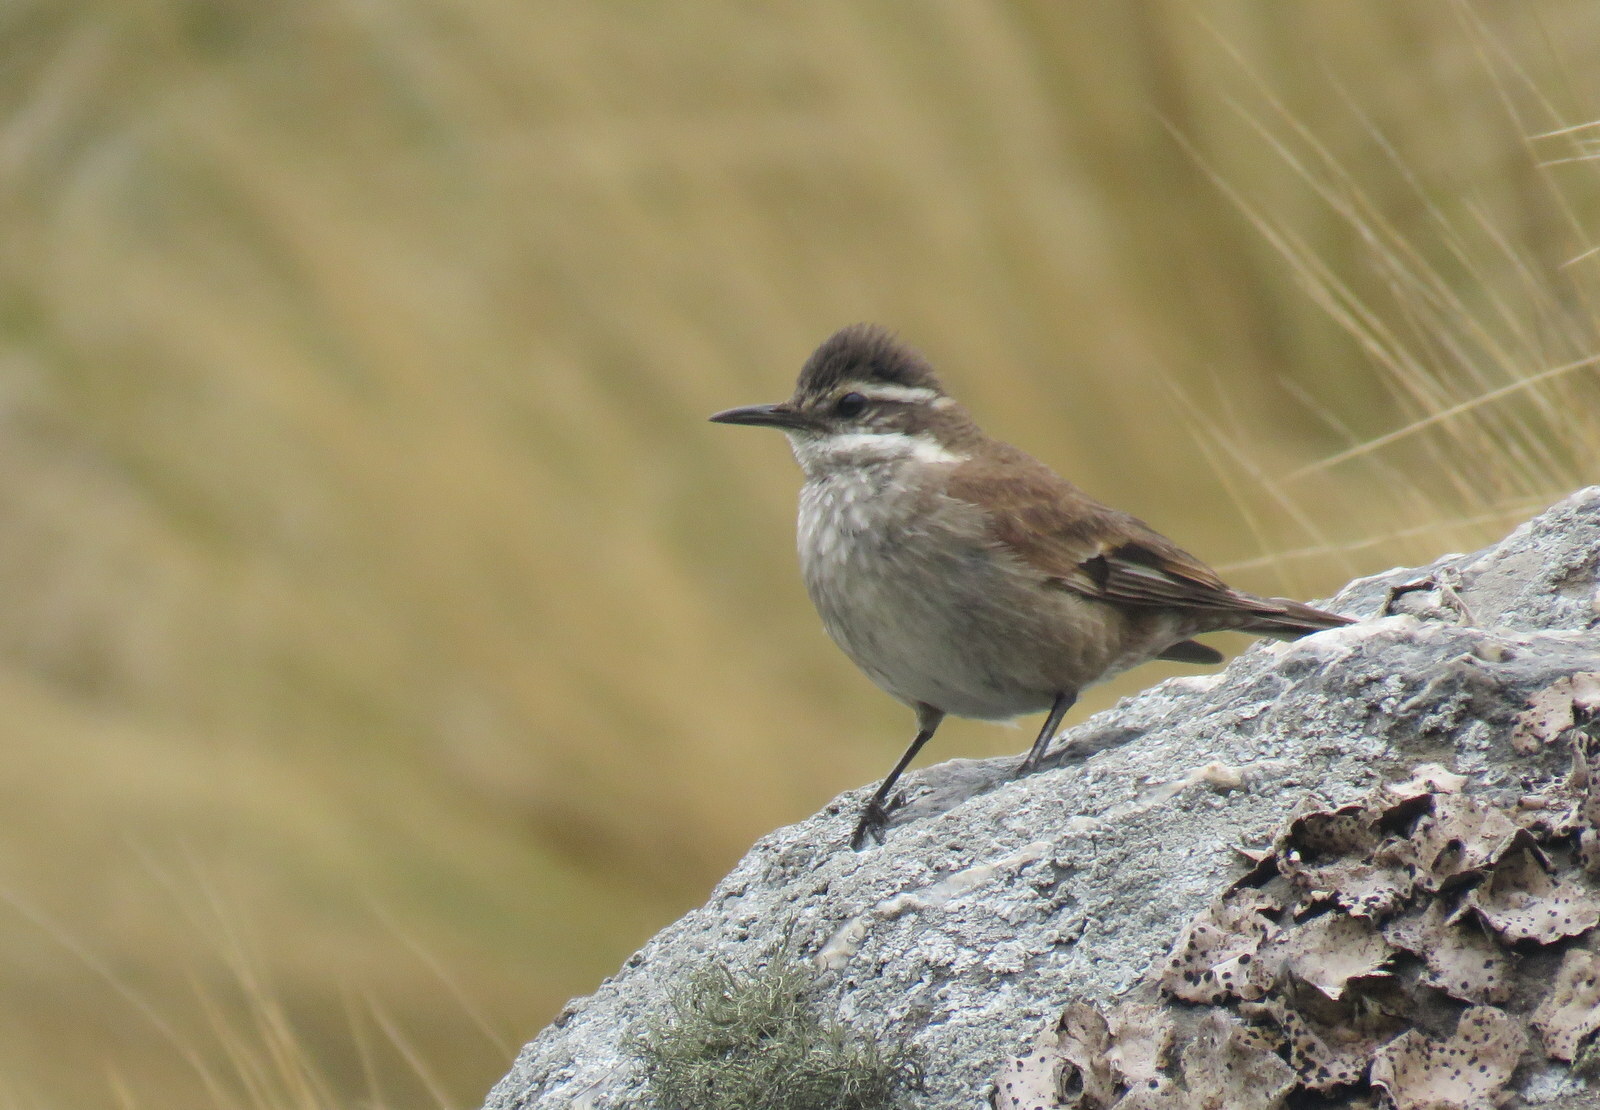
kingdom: Animalia
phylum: Chordata
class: Aves
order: Passeriformes
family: Furnariidae
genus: Cinclodes
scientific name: Cinclodes fuscus
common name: Buff-winged cinclodes
